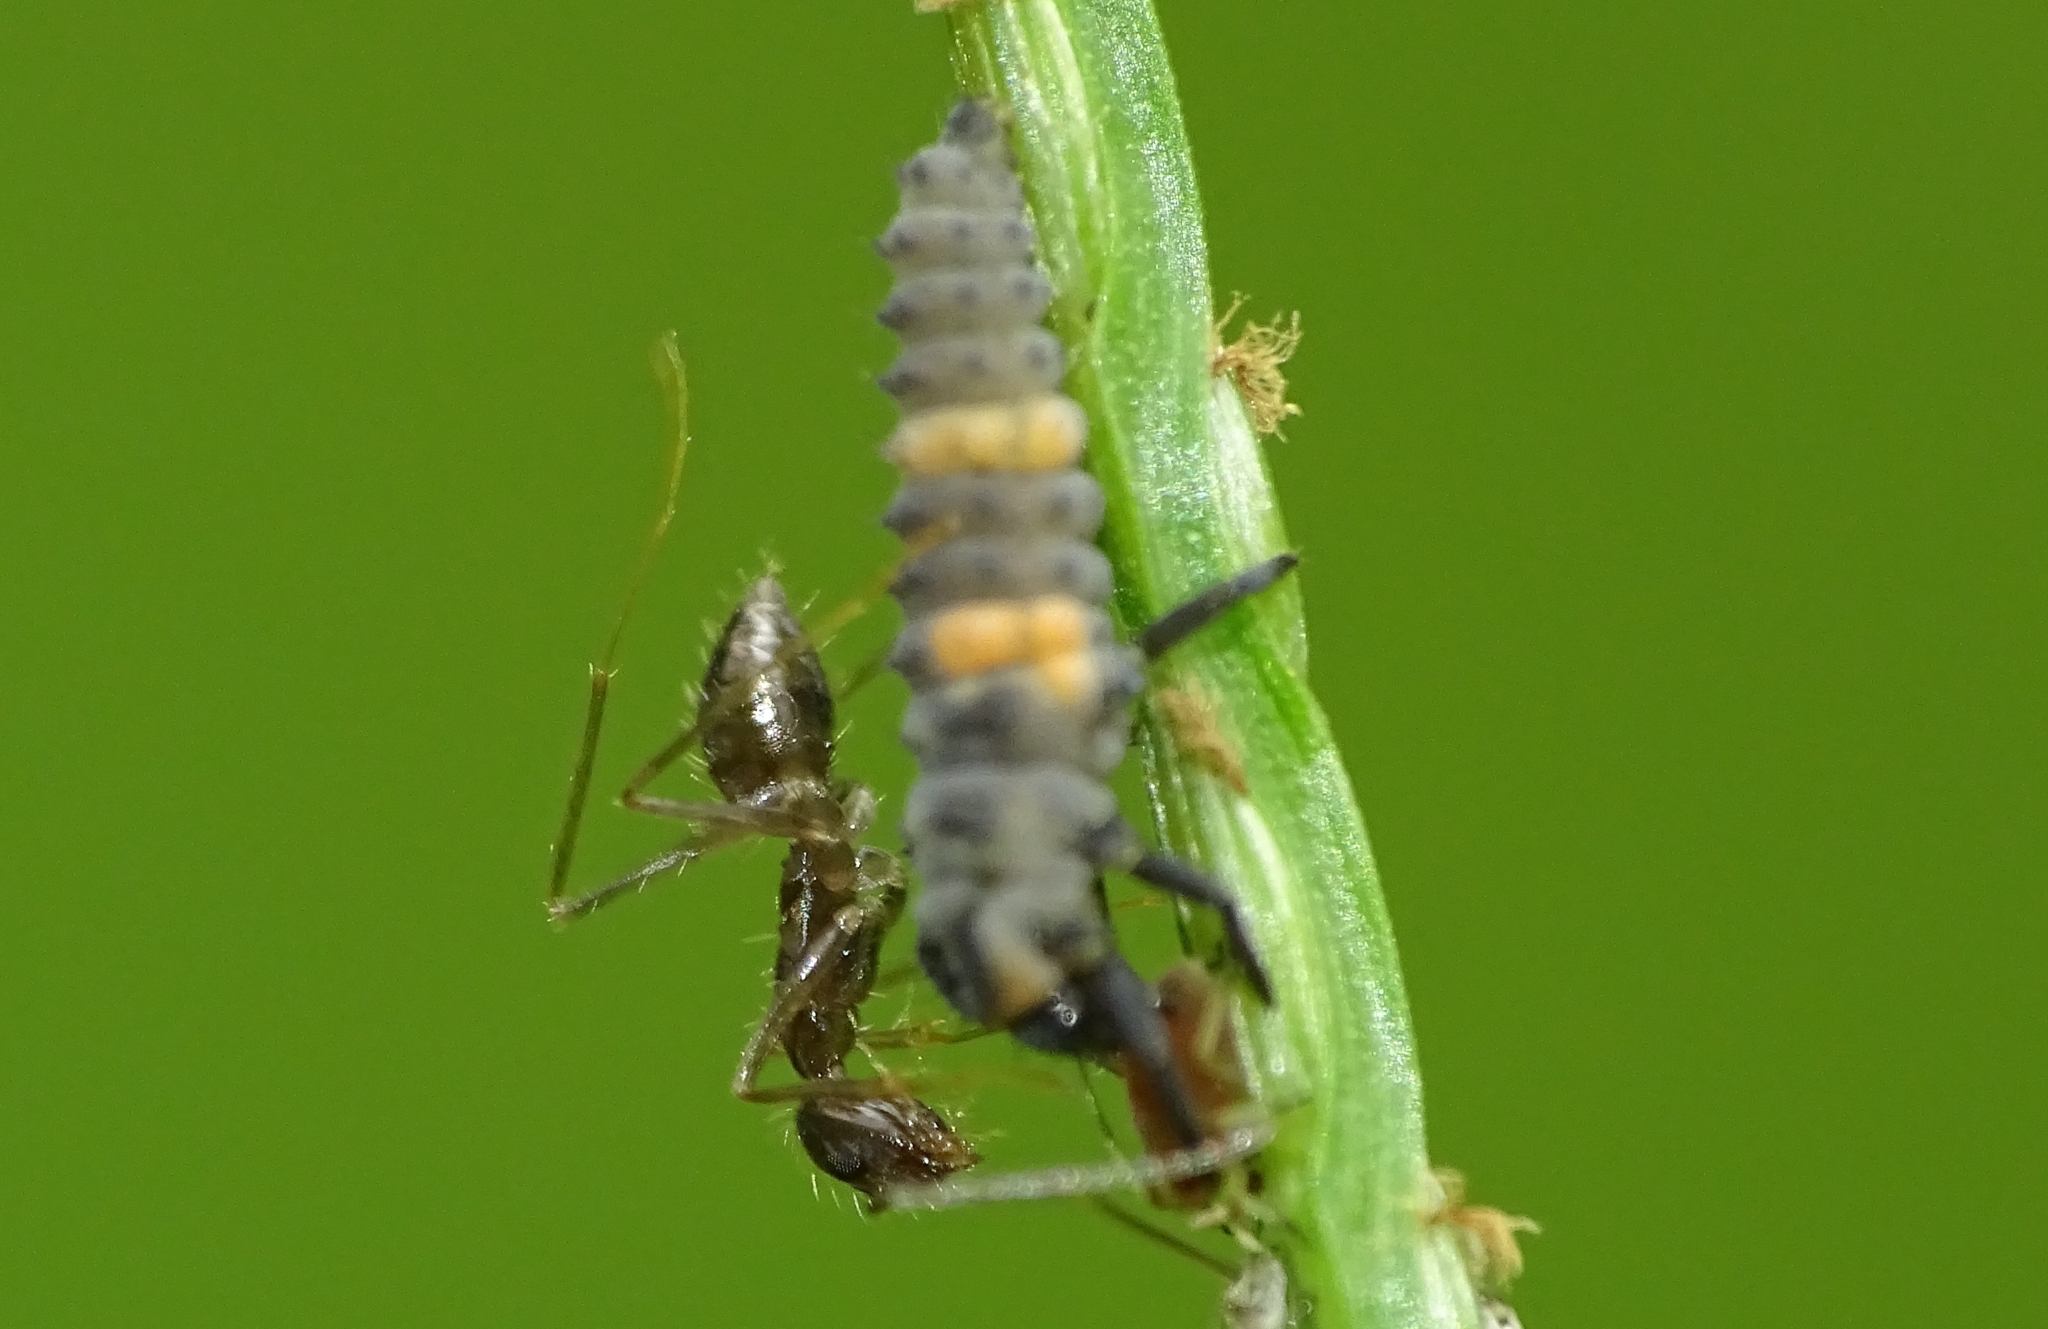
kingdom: Animalia
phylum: Arthropoda
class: Insecta
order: Hymenoptera
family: Formicidae
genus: Paratrechina
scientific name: Paratrechina longicornis
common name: Longhorned crazy ant
